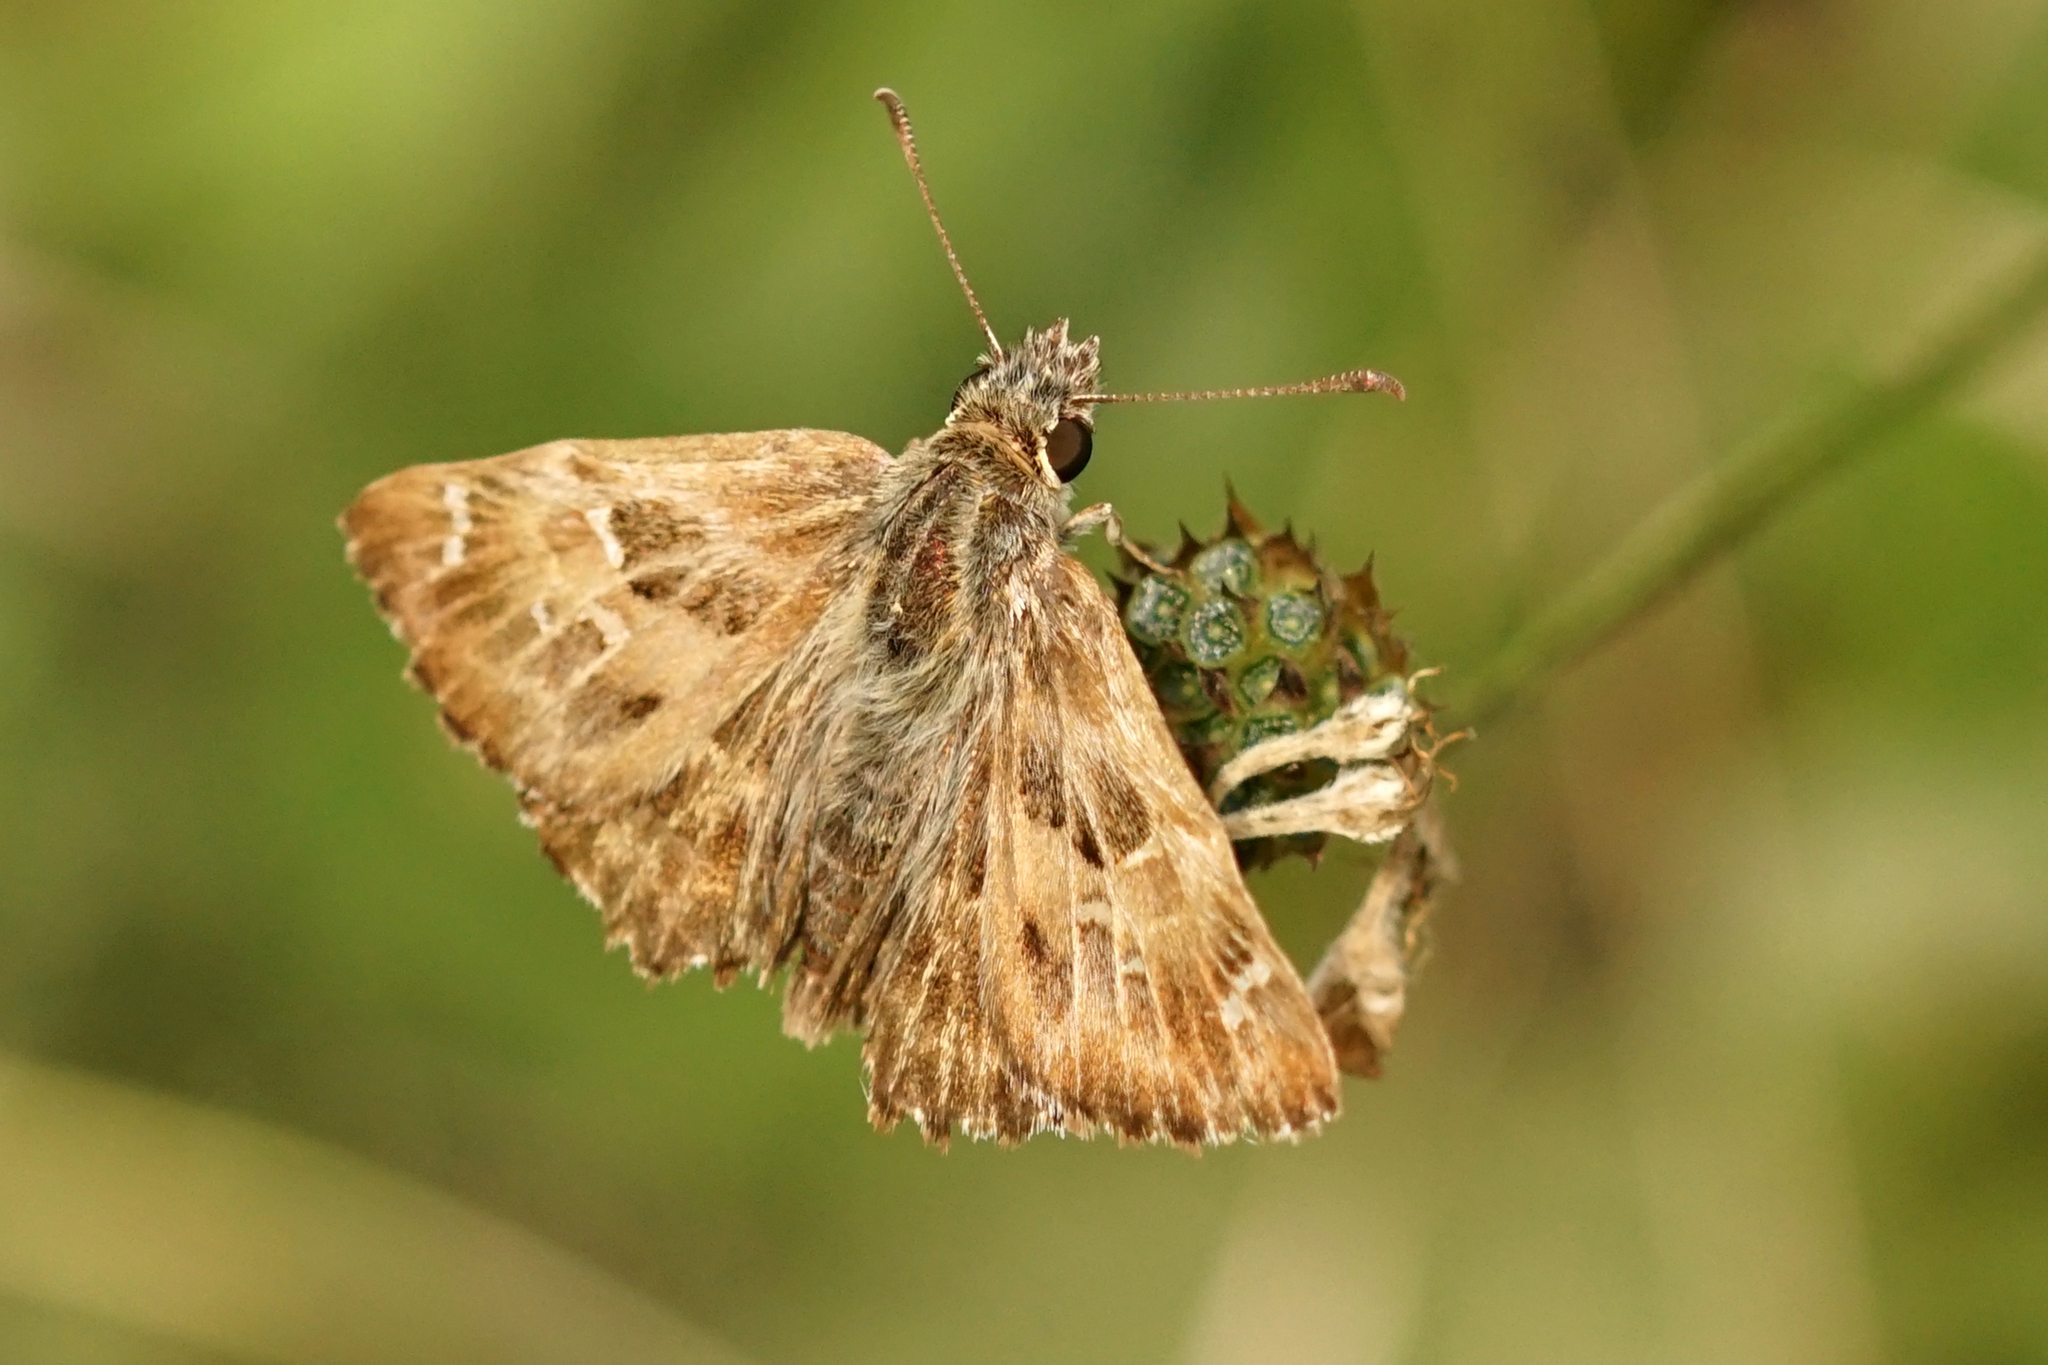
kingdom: Animalia
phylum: Arthropoda
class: Insecta
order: Lepidoptera
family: Hesperiidae
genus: Carcharodus
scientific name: Carcharodus alceae
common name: Mallow skipper
